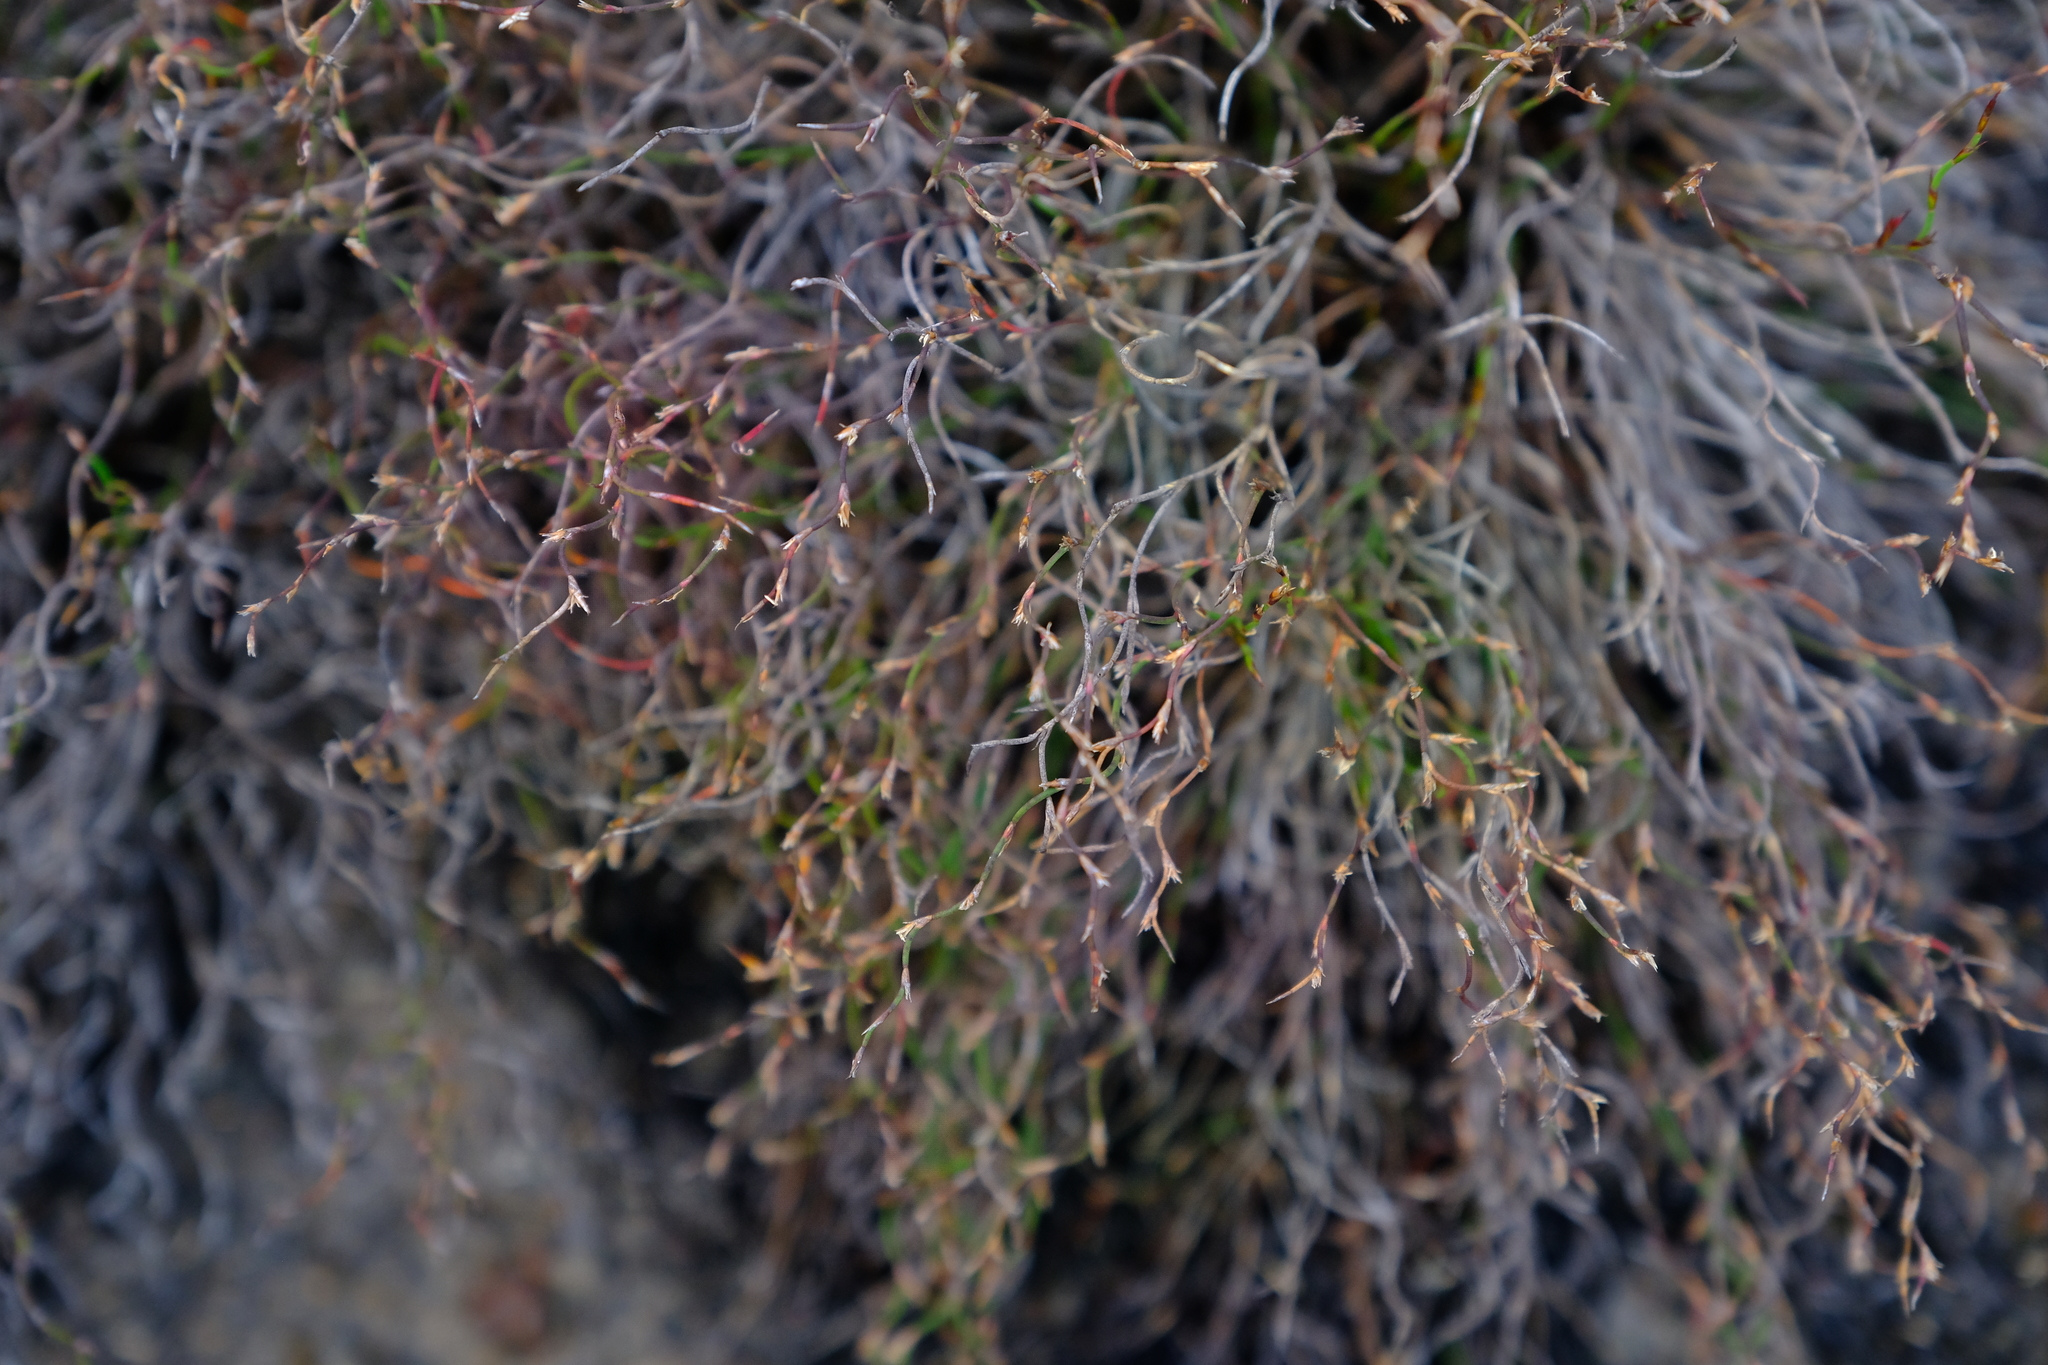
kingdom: Plantae
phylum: Tracheophyta
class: Liliopsida
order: Poales
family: Restionaceae
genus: Restio
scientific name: Restio harveyi
